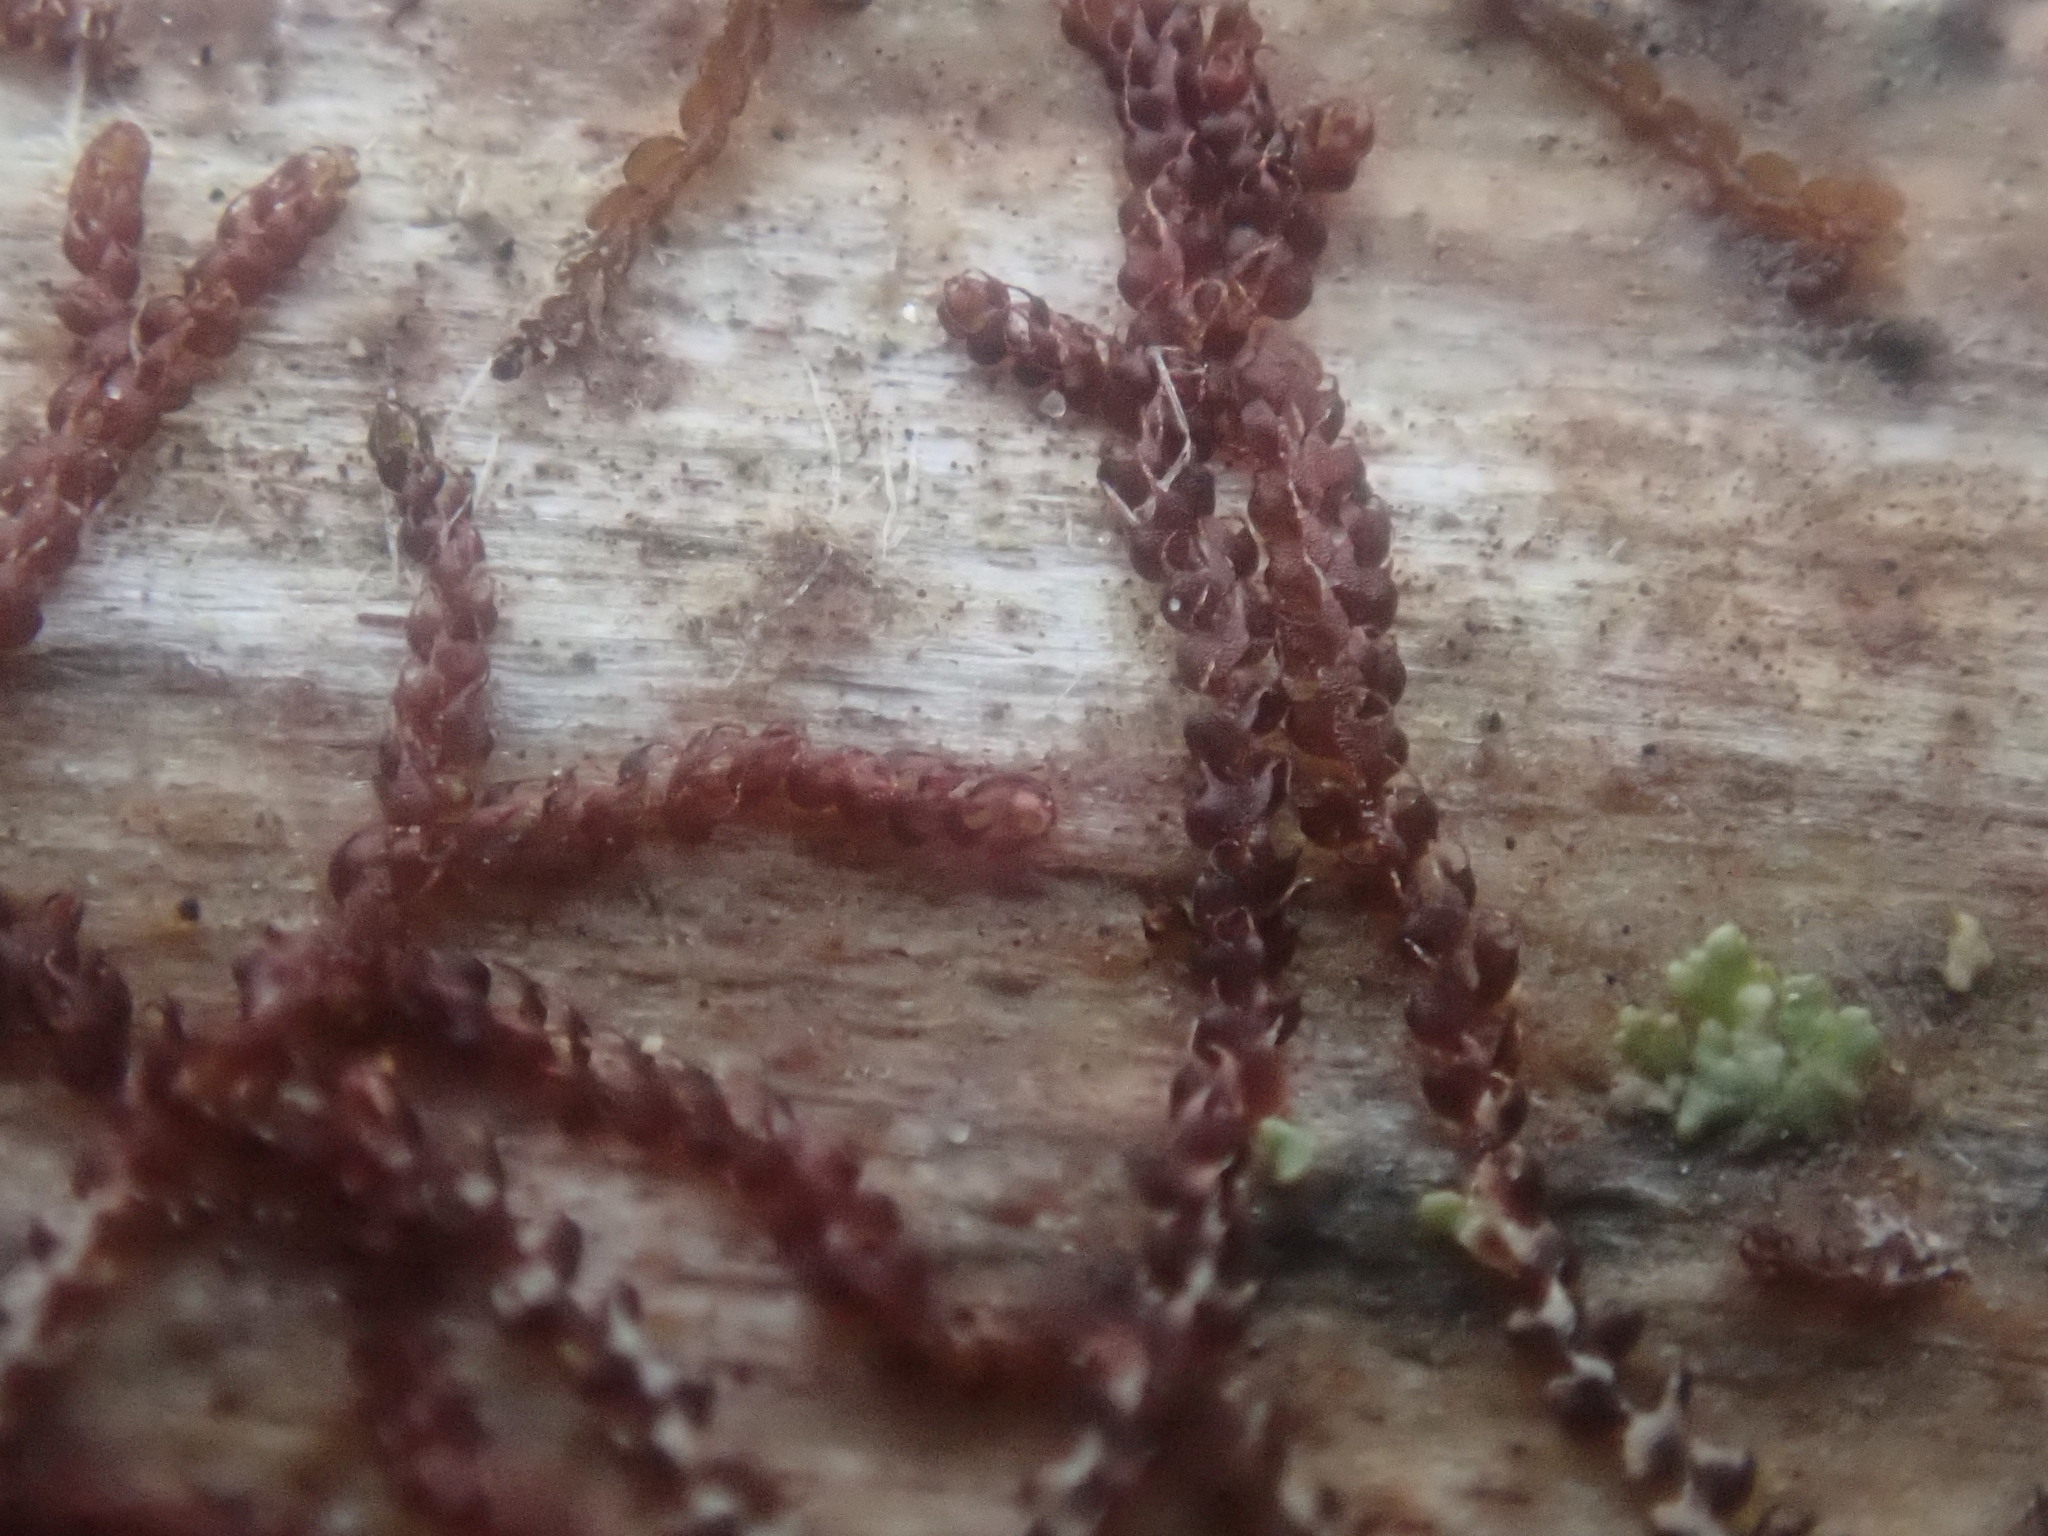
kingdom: Plantae
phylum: Marchantiophyta
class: Jungermanniopsida
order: Jungermanniales
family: Cephaloziaceae
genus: Nowellia
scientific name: Nowellia curvifolia
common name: Wood rustwort
